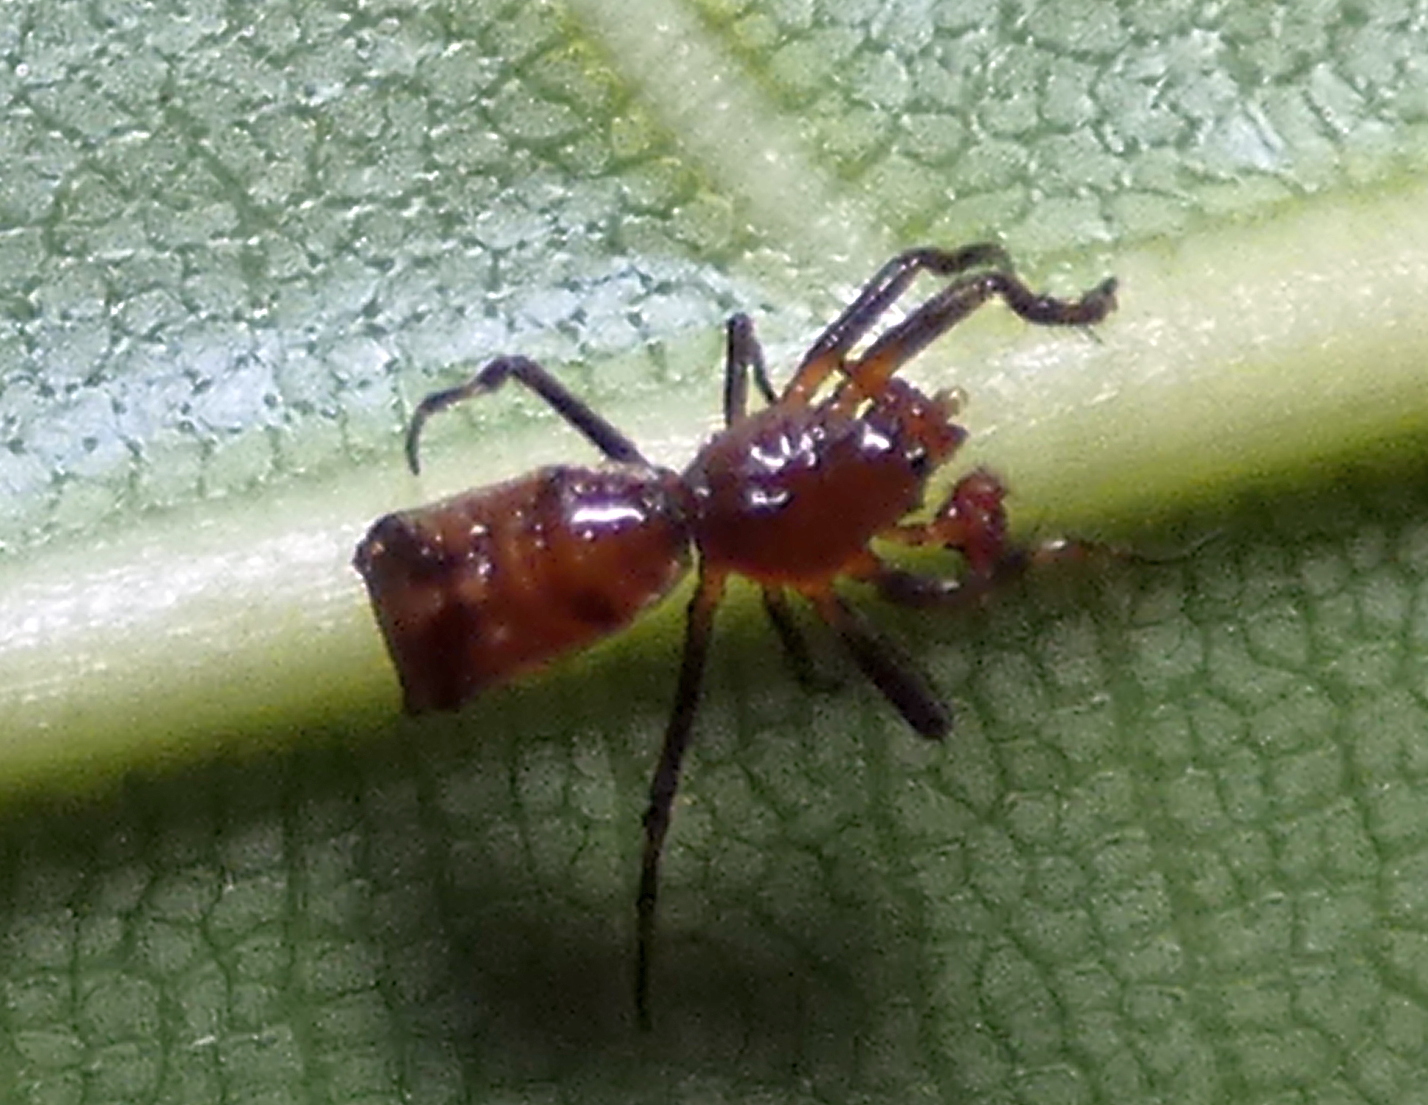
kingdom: Animalia
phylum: Arthropoda
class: Arachnida
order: Araneae
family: Araneidae
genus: Micrathena
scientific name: Micrathena picta
